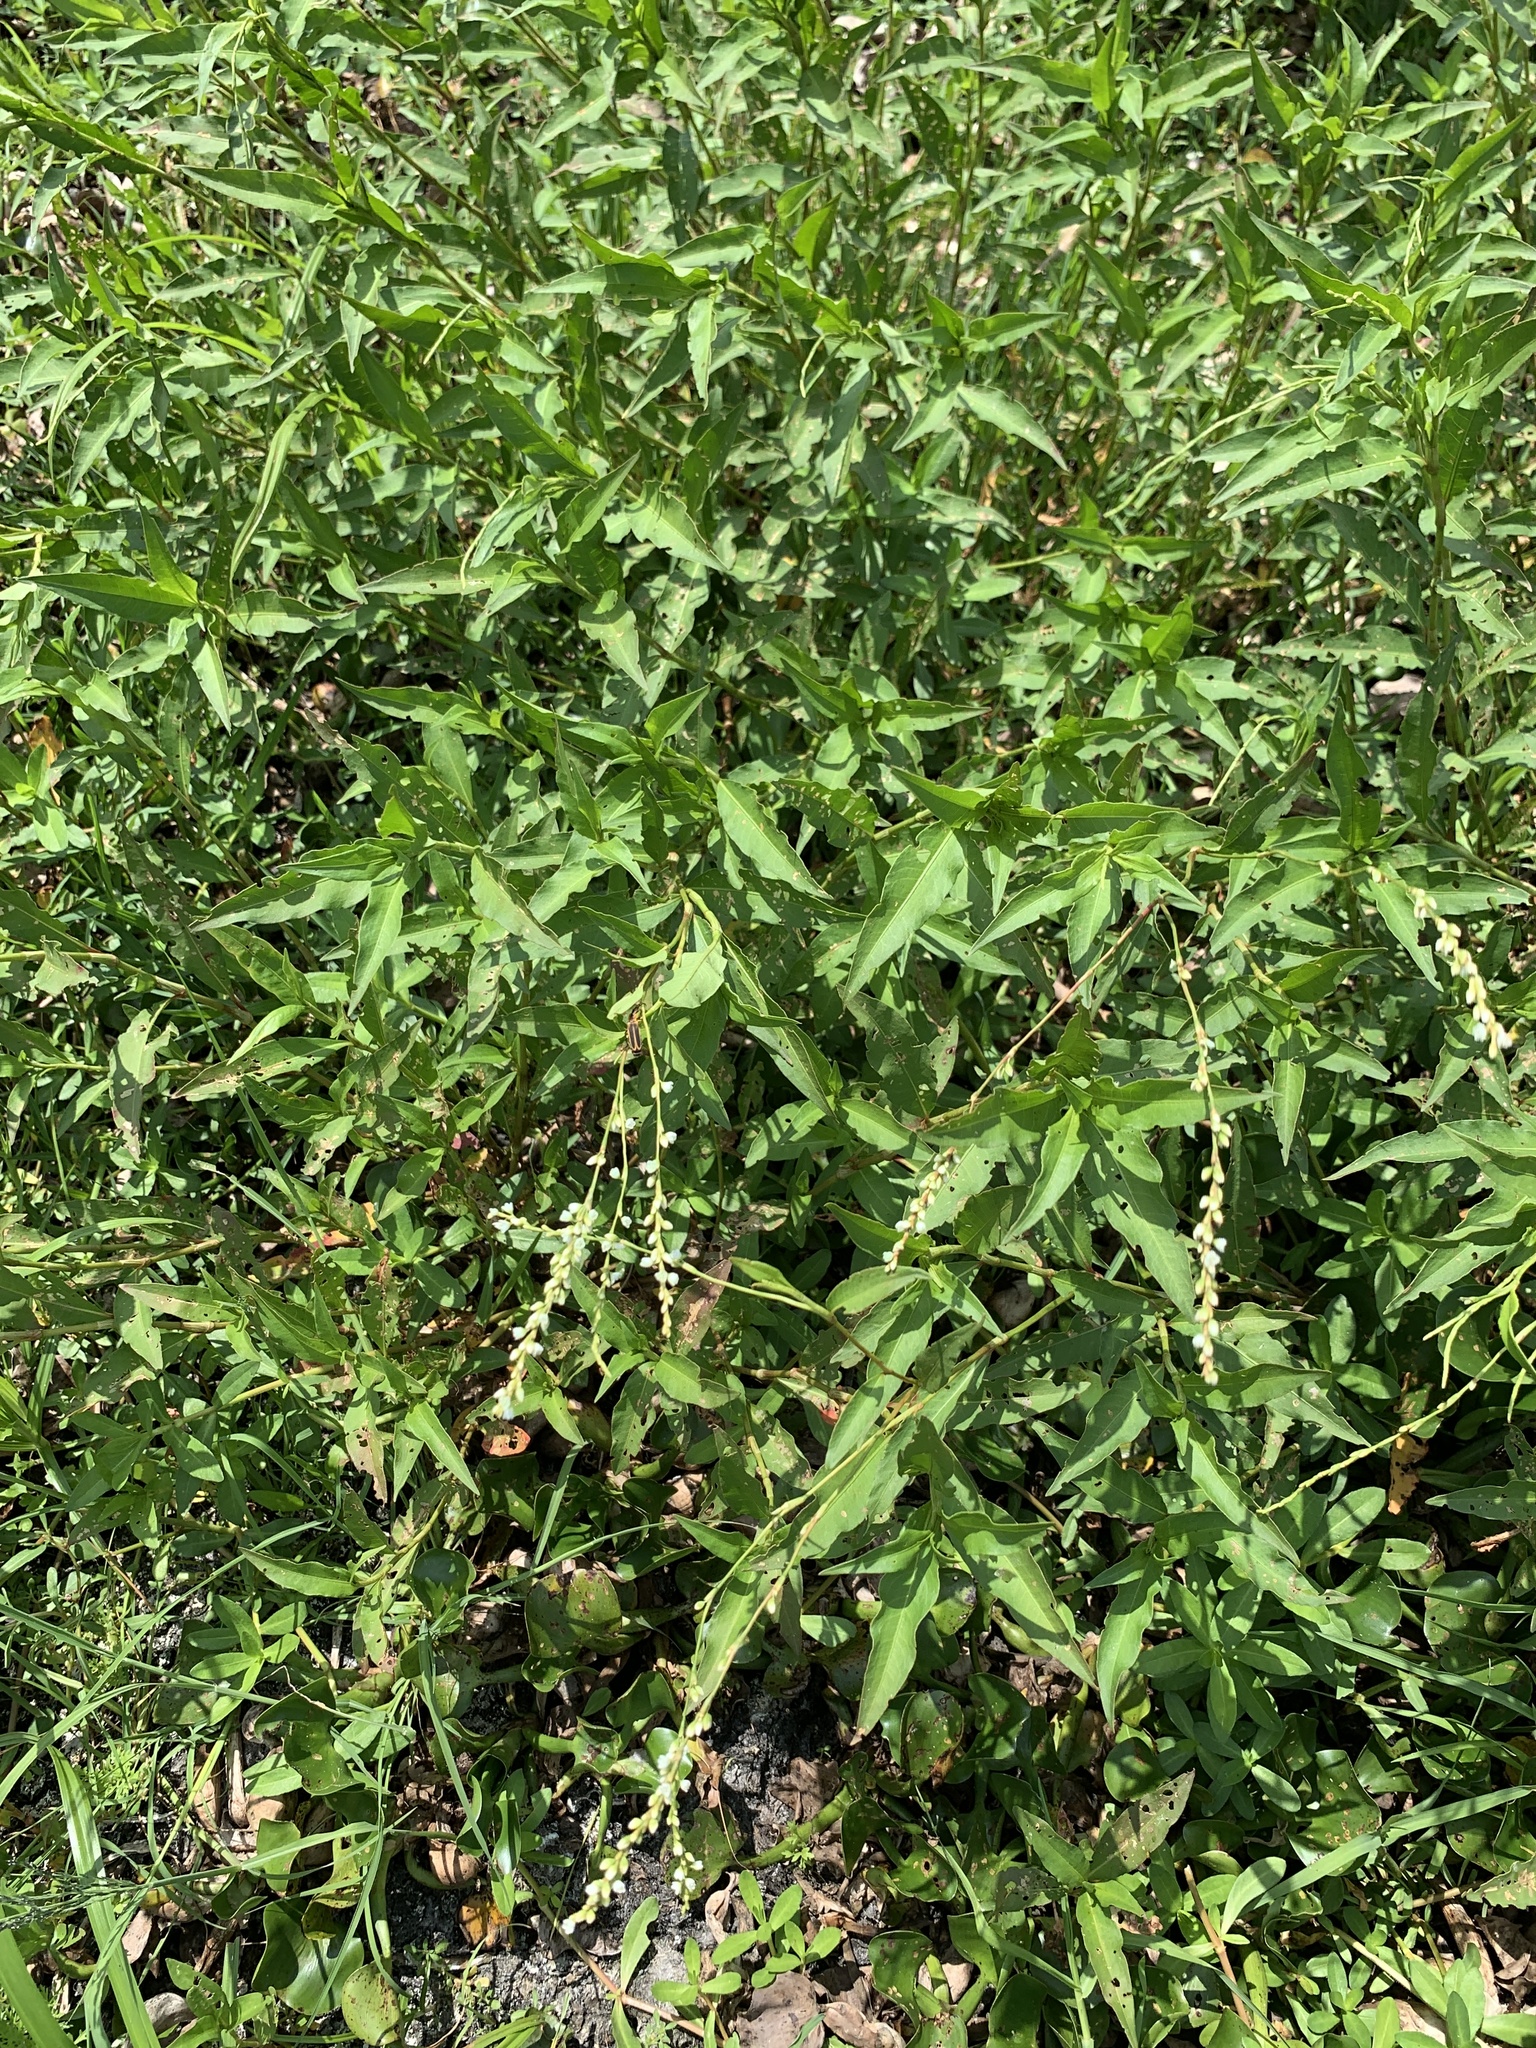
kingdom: Plantae
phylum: Tracheophyta
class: Magnoliopsida
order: Caryophyllales
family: Polygonaceae
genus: Persicaria
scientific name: Persicaria hydropiperoides
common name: Swamp smartweed
